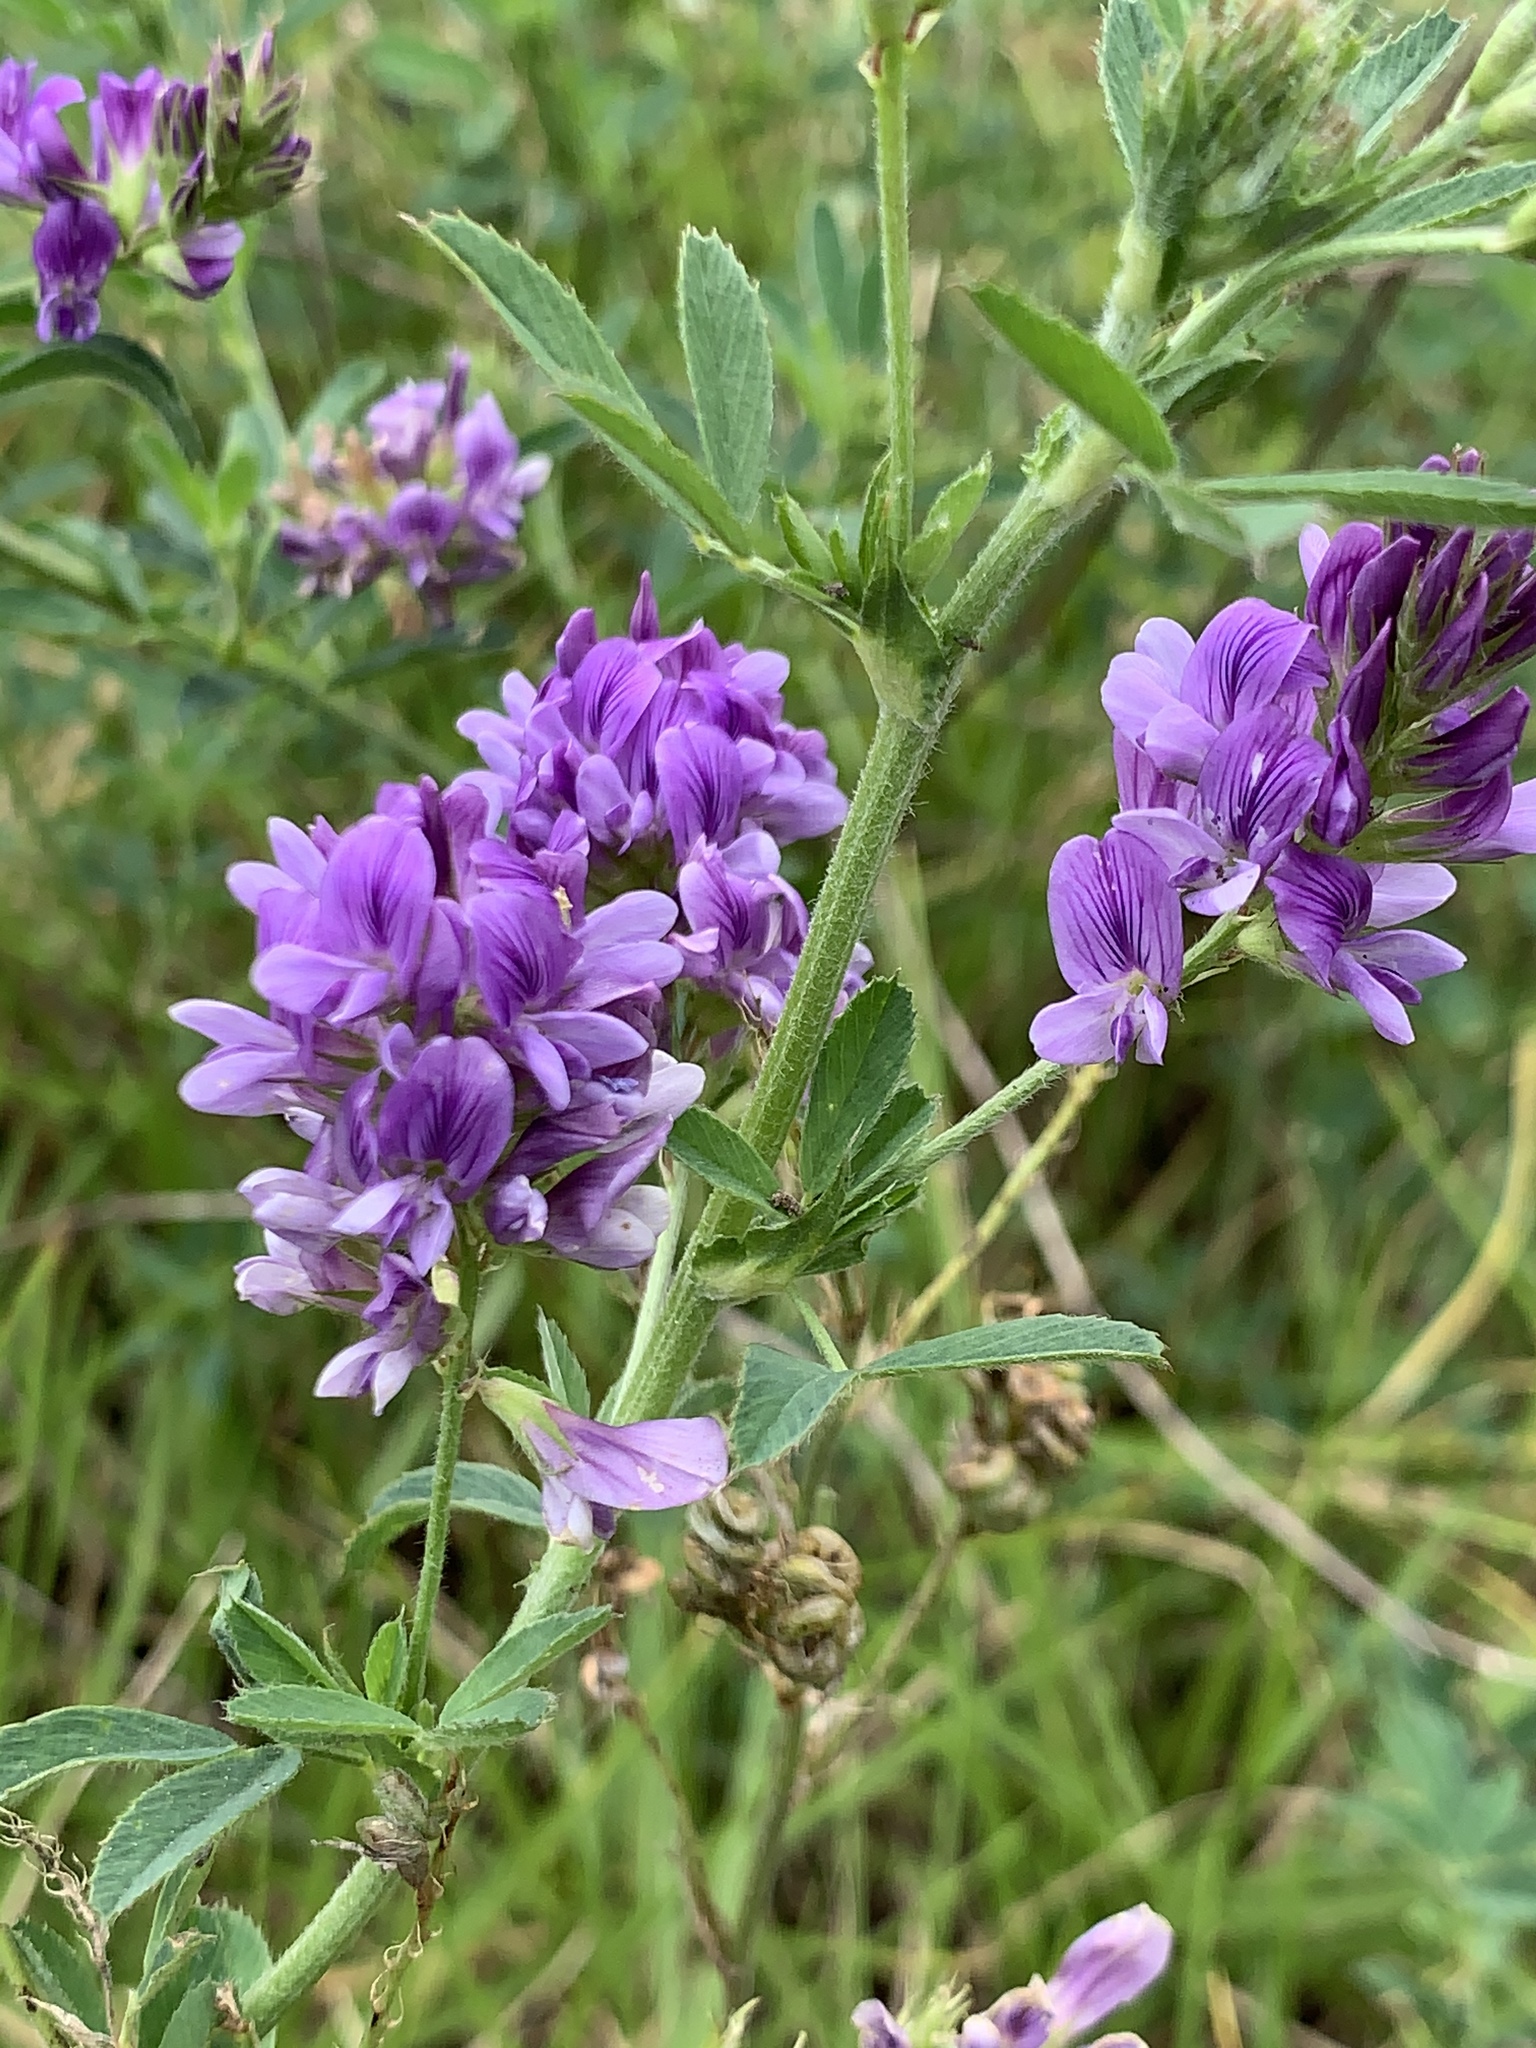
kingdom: Plantae
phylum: Tracheophyta
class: Magnoliopsida
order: Fabales
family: Fabaceae
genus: Medicago
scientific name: Medicago sativa
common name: Alfalfa
